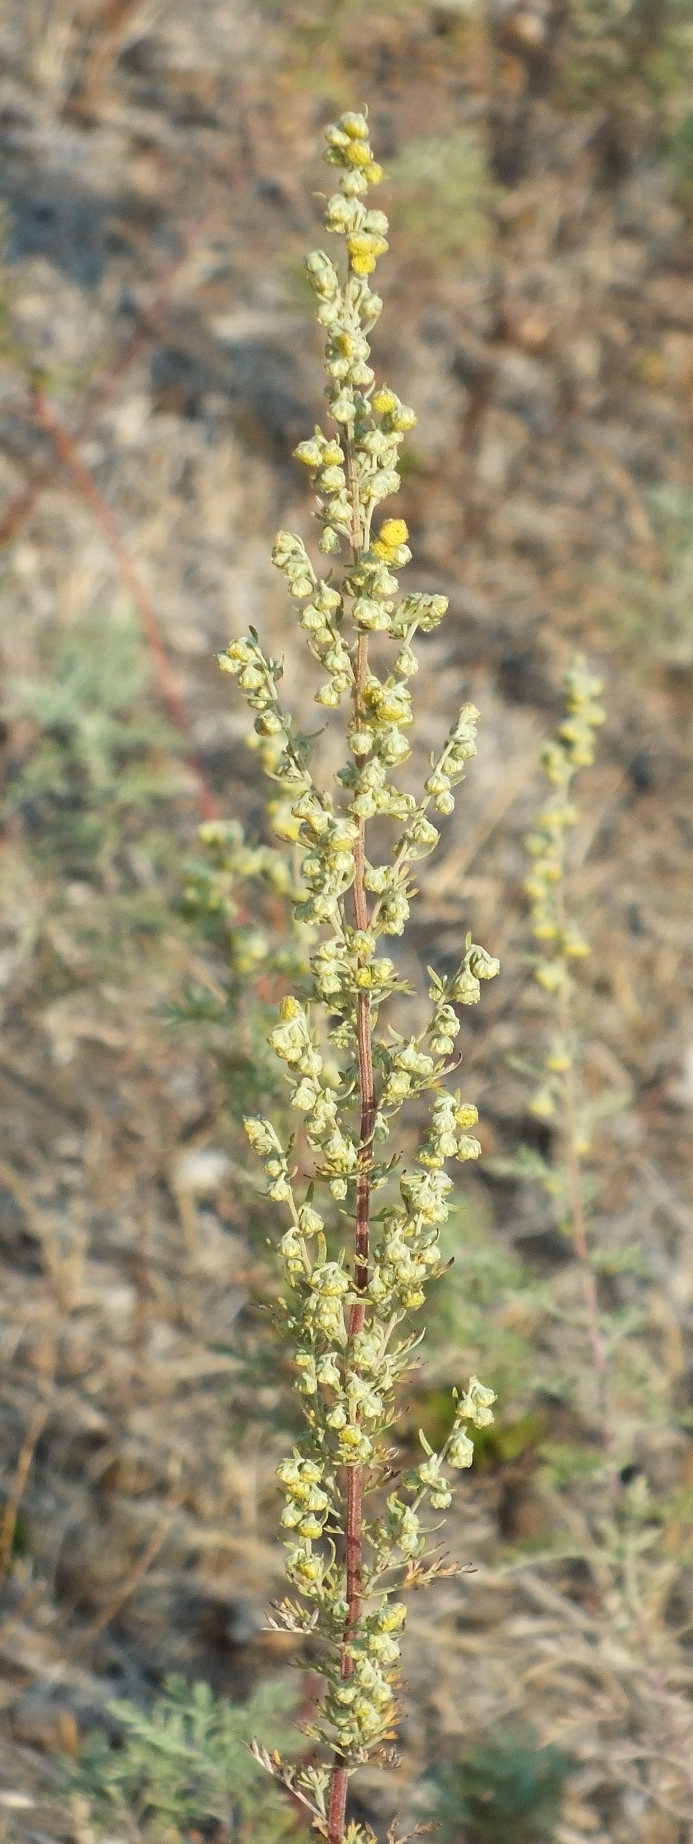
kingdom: Plantae
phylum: Tracheophyta
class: Magnoliopsida
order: Asterales
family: Asteraceae
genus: Artemisia
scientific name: Artemisia pontica
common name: Roman wormwood
